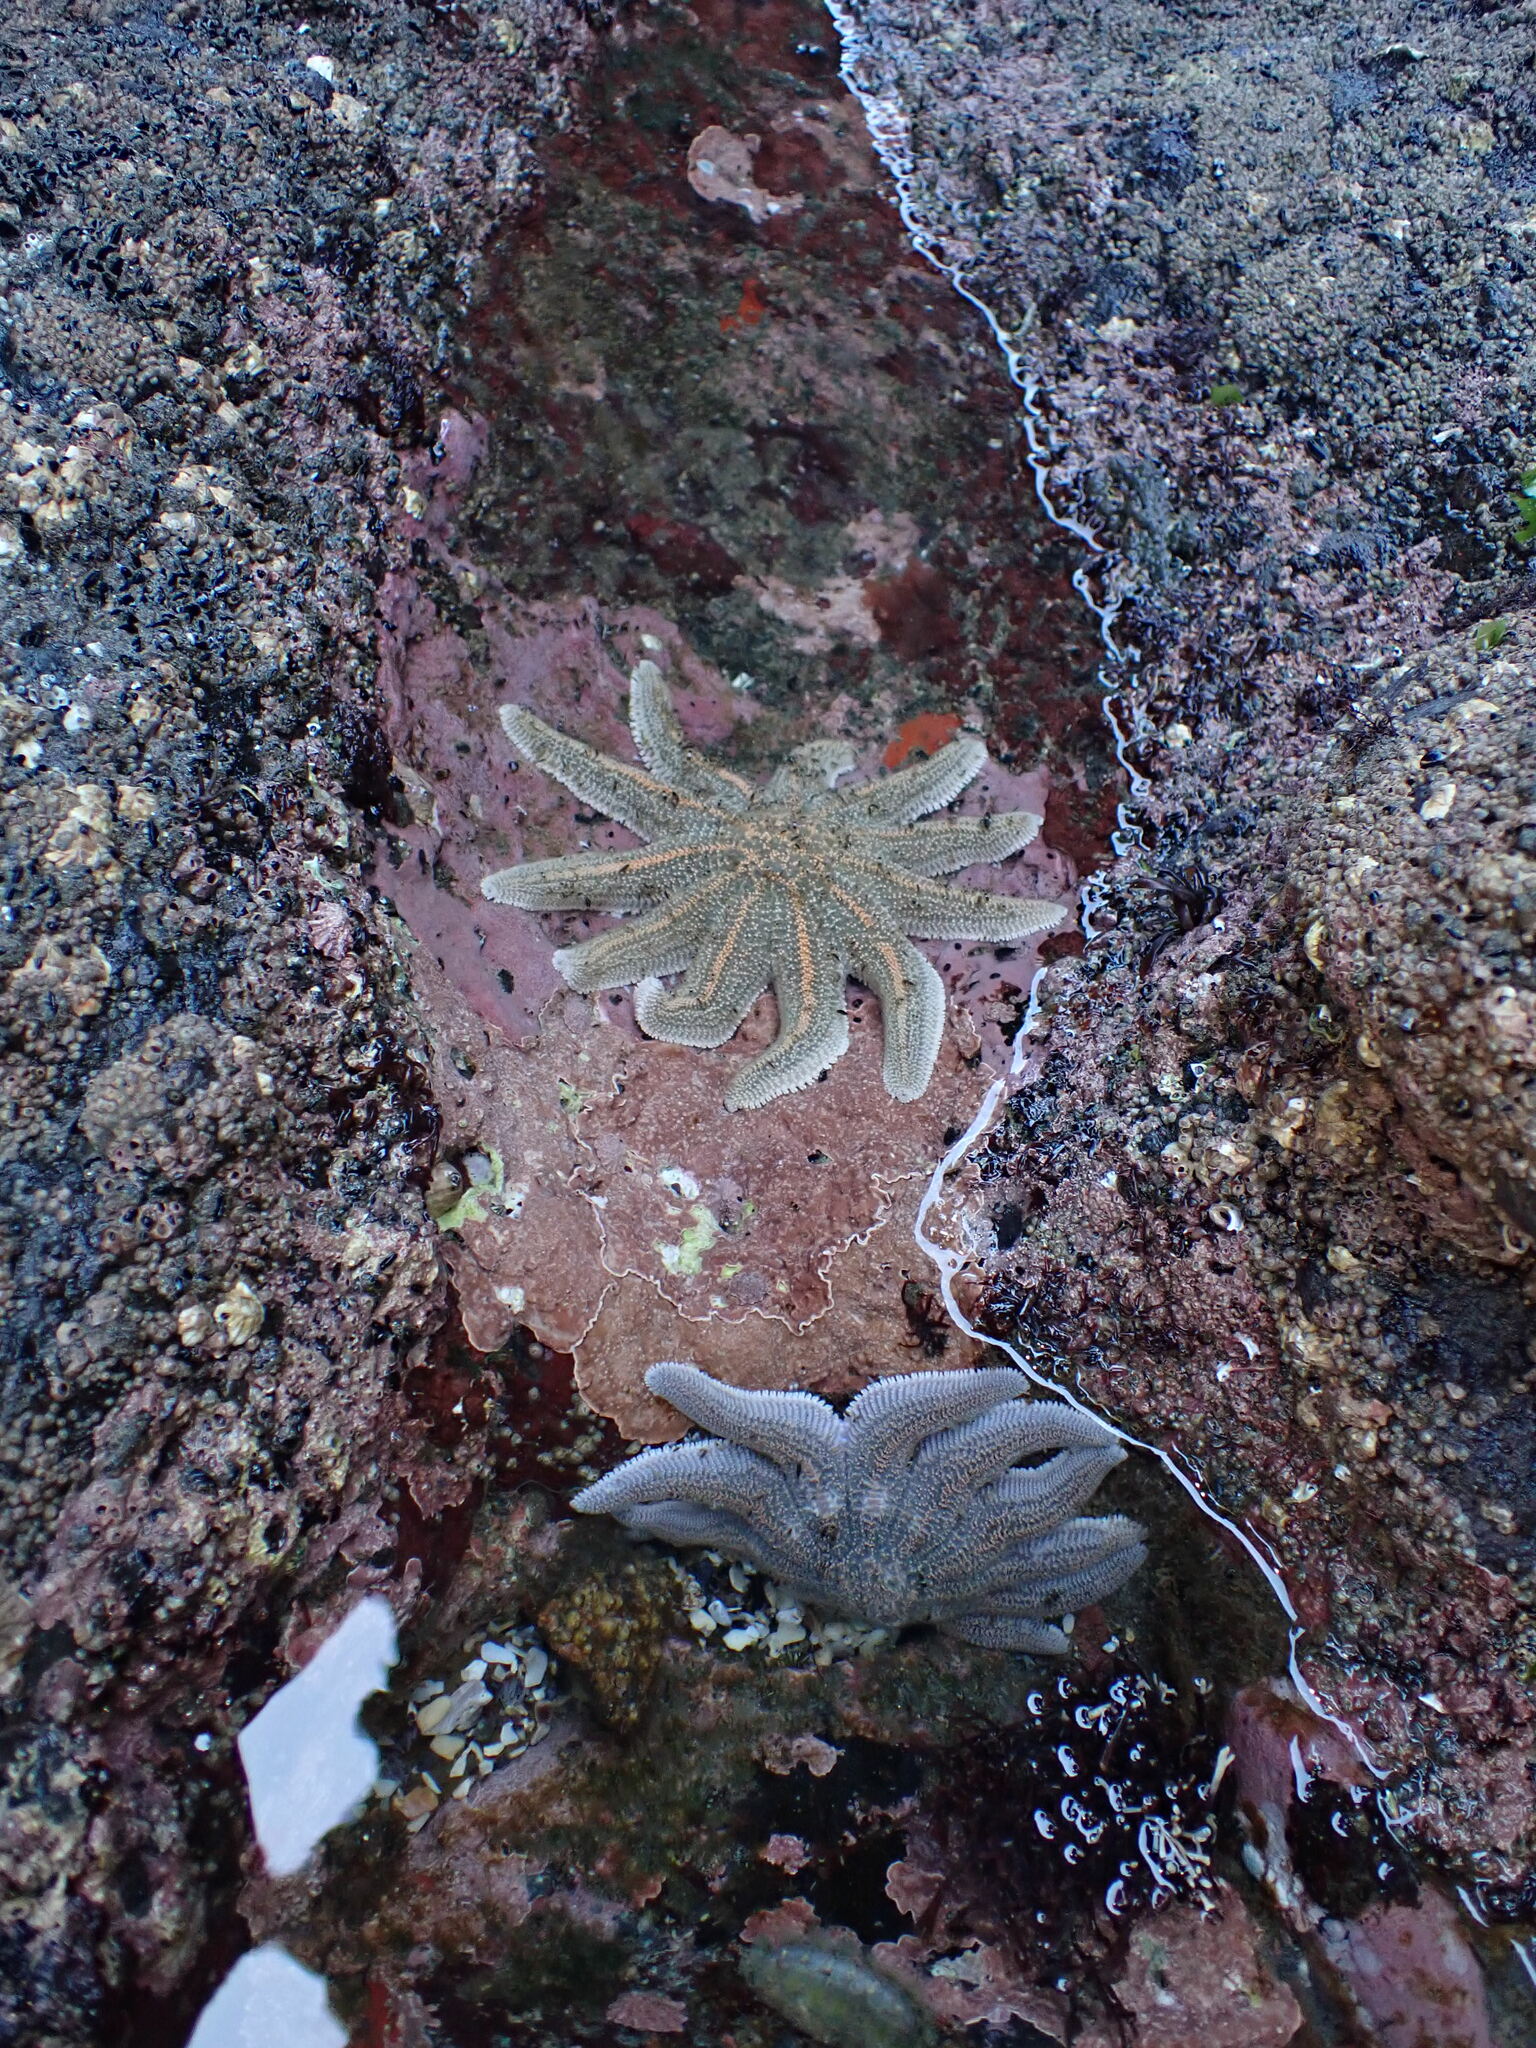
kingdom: Animalia
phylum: Echinodermata
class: Asteroidea
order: Forcipulatida
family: Stichasteridae
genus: Stichaster
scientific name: Stichaster australis
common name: Reef starfish
